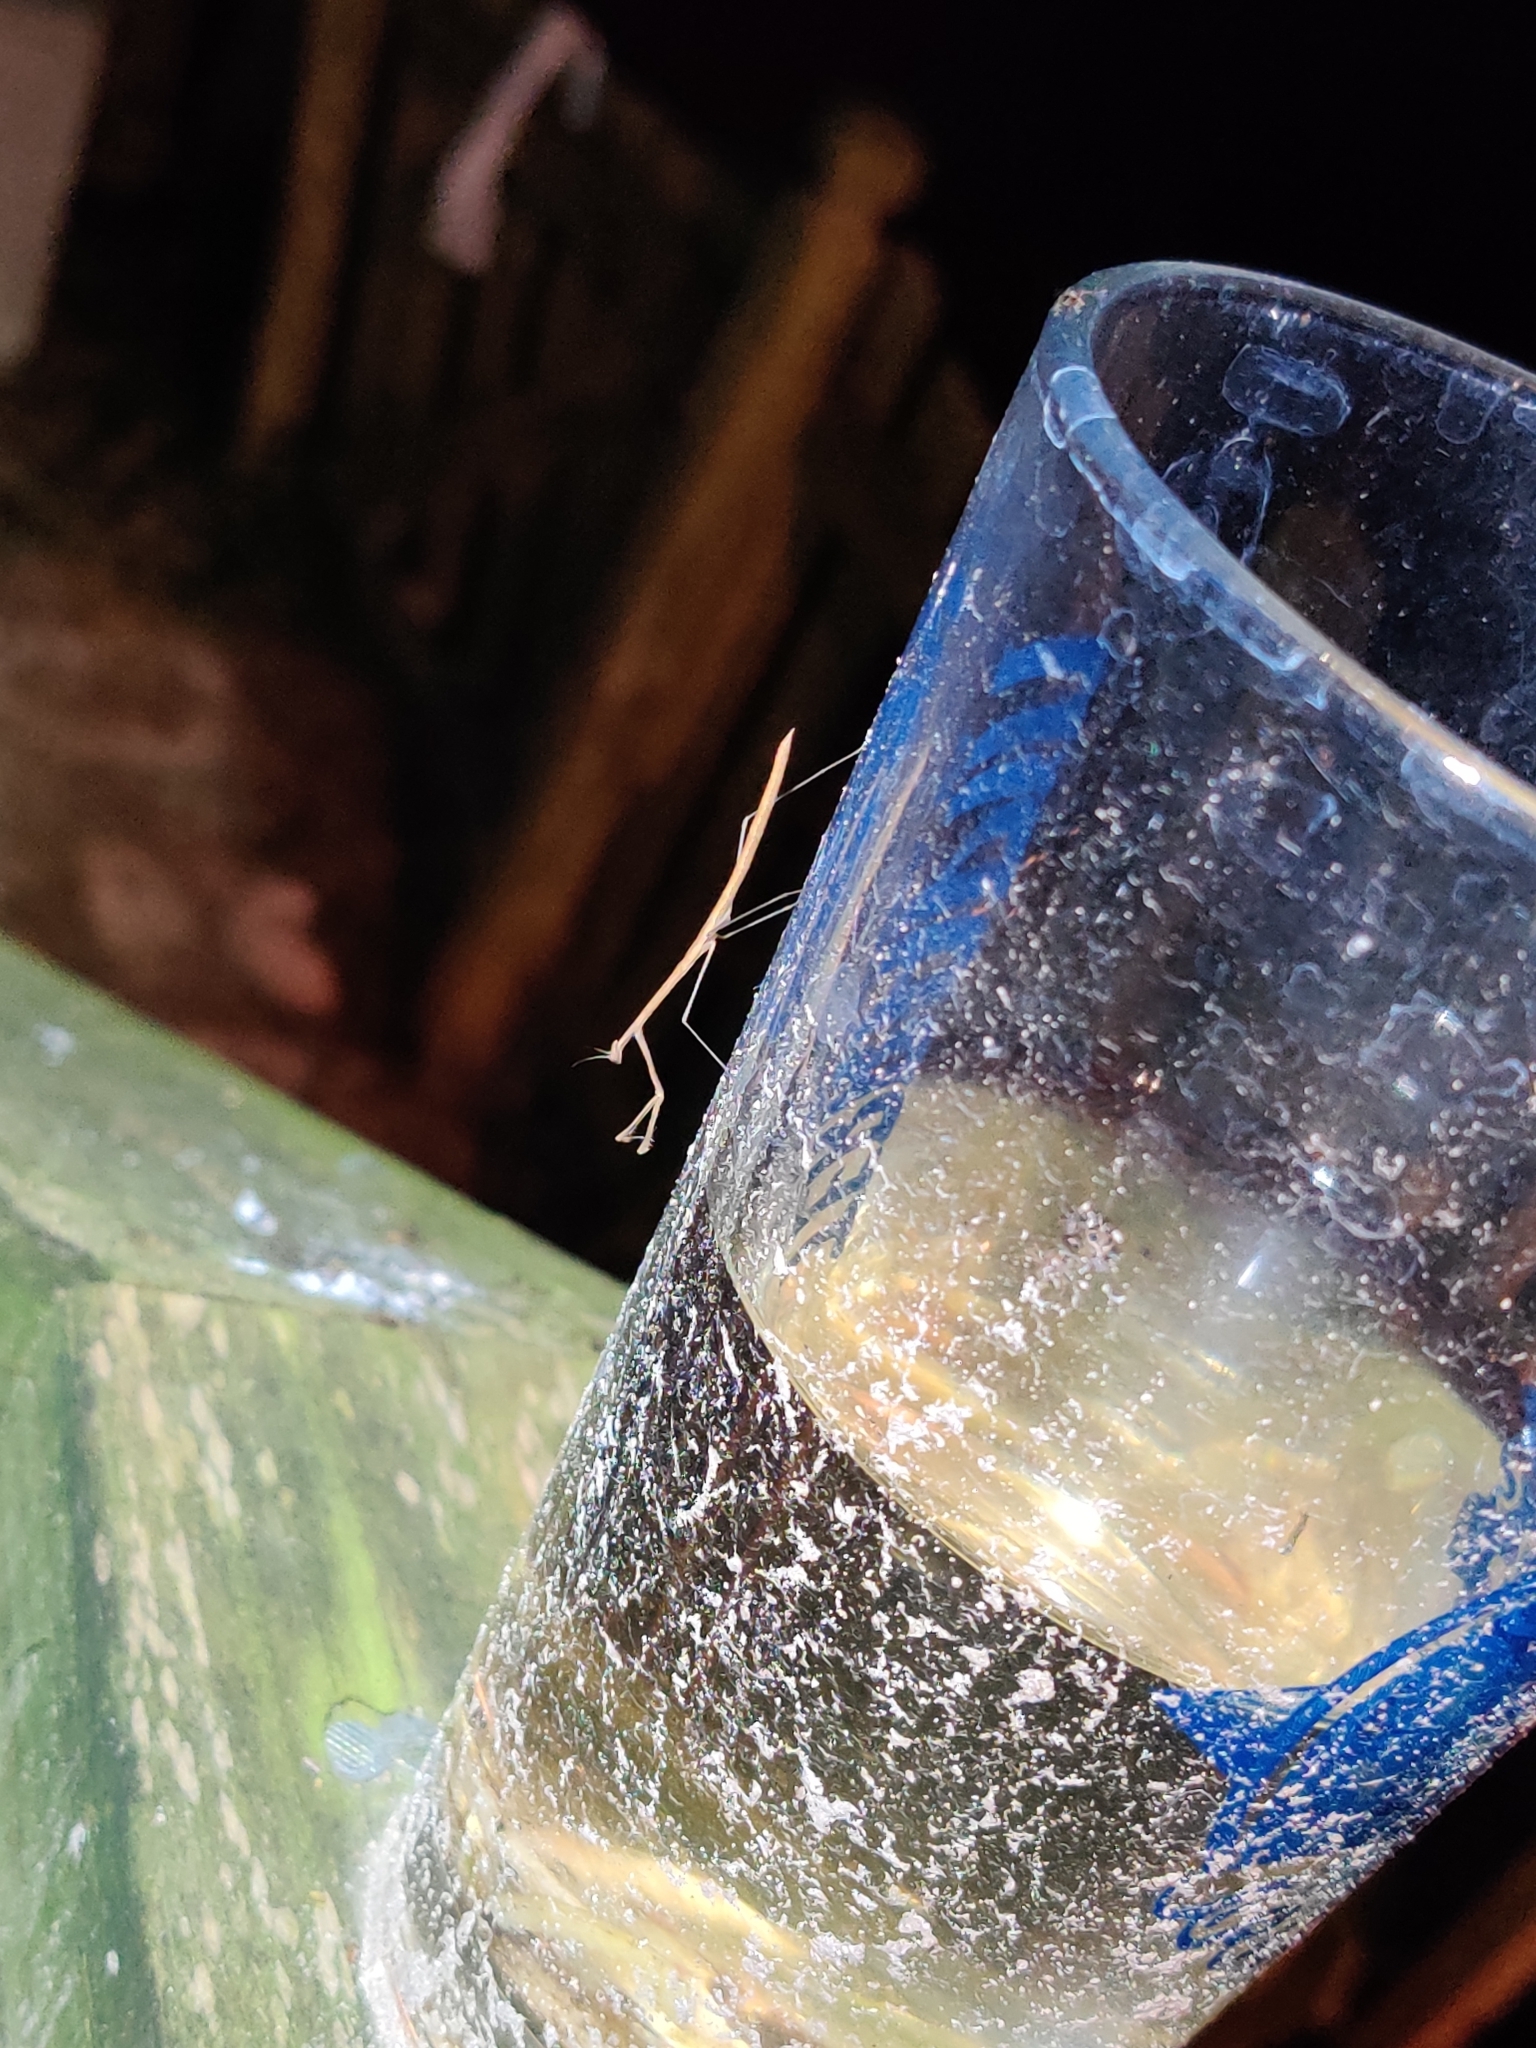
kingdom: Animalia
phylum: Arthropoda
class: Insecta
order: Mantodea
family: Thespidae
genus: Thesprotia
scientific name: Thesprotia graminis
